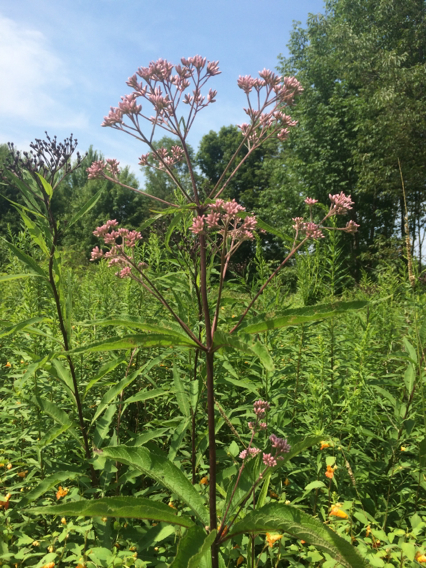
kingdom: Plantae
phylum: Tracheophyta
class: Magnoliopsida
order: Asterales
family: Asteraceae
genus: Eutrochium
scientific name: Eutrochium fistulosum
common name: Trumpetweed
